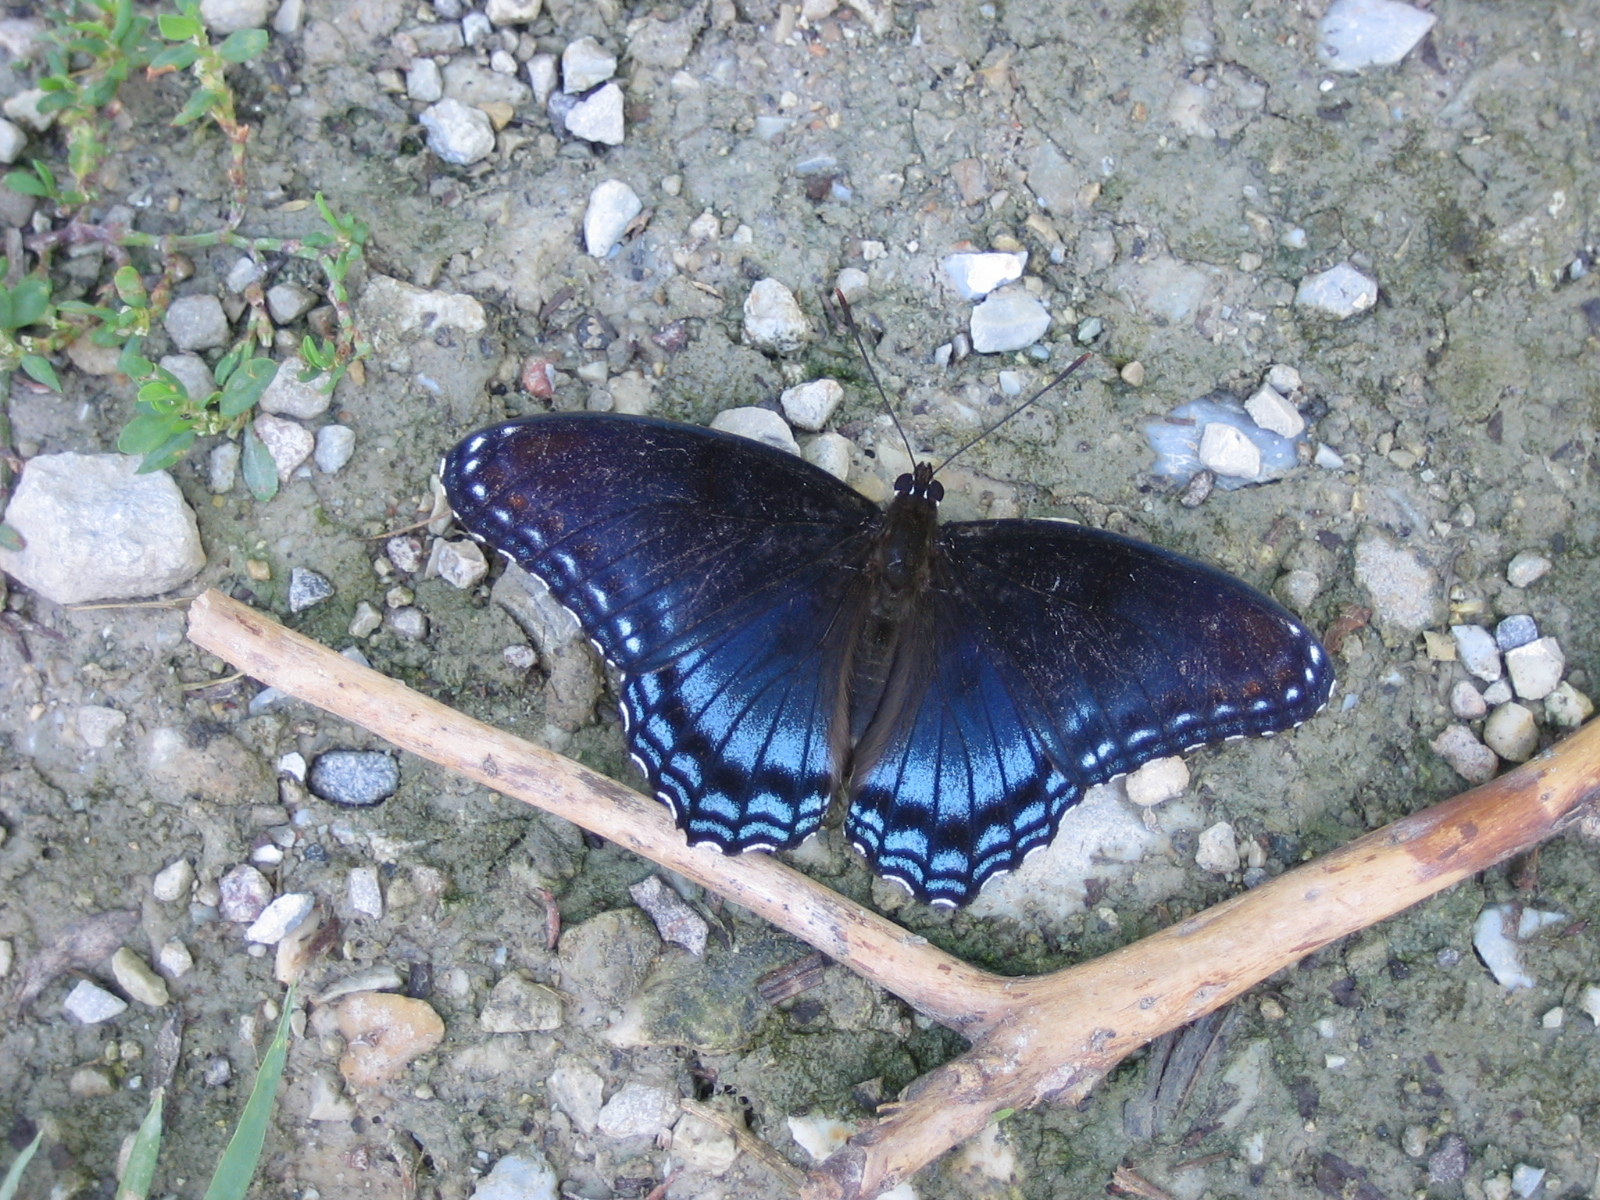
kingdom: Animalia
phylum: Arthropoda
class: Insecta
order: Lepidoptera
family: Nymphalidae
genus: Limenitis
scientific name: Limenitis arthemis
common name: Red-spotted admiral
